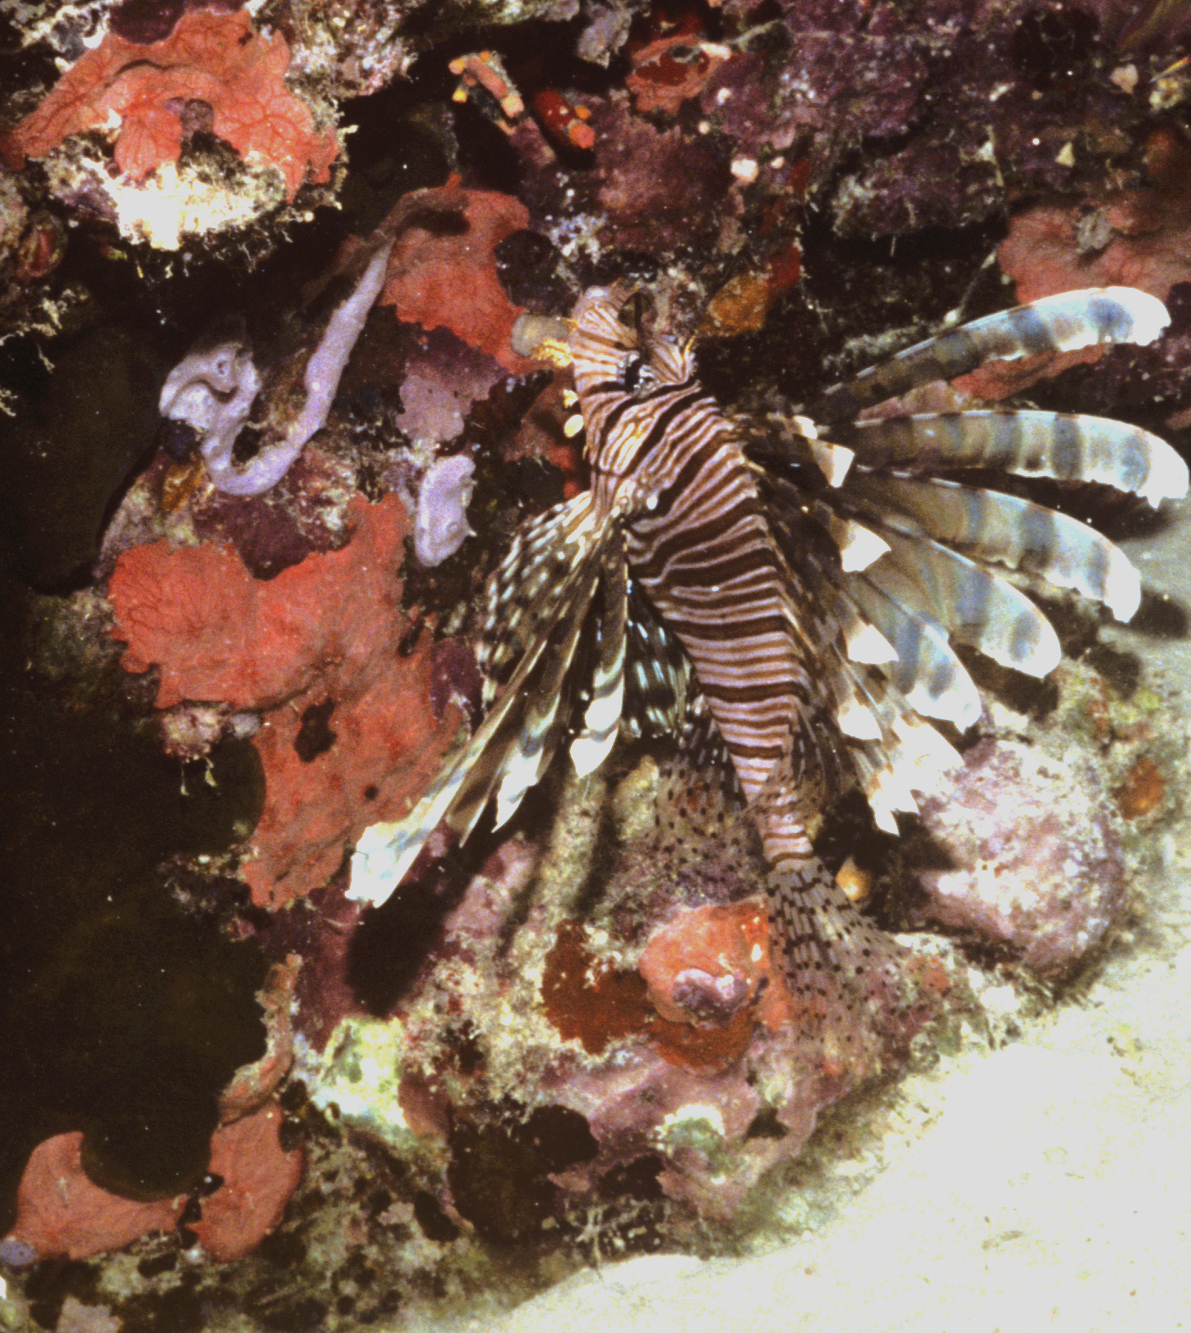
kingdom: Animalia
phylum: Chordata
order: Scorpaeniformes
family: Scorpaenidae
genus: Pterois
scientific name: Pterois volitans
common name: Lionfish
